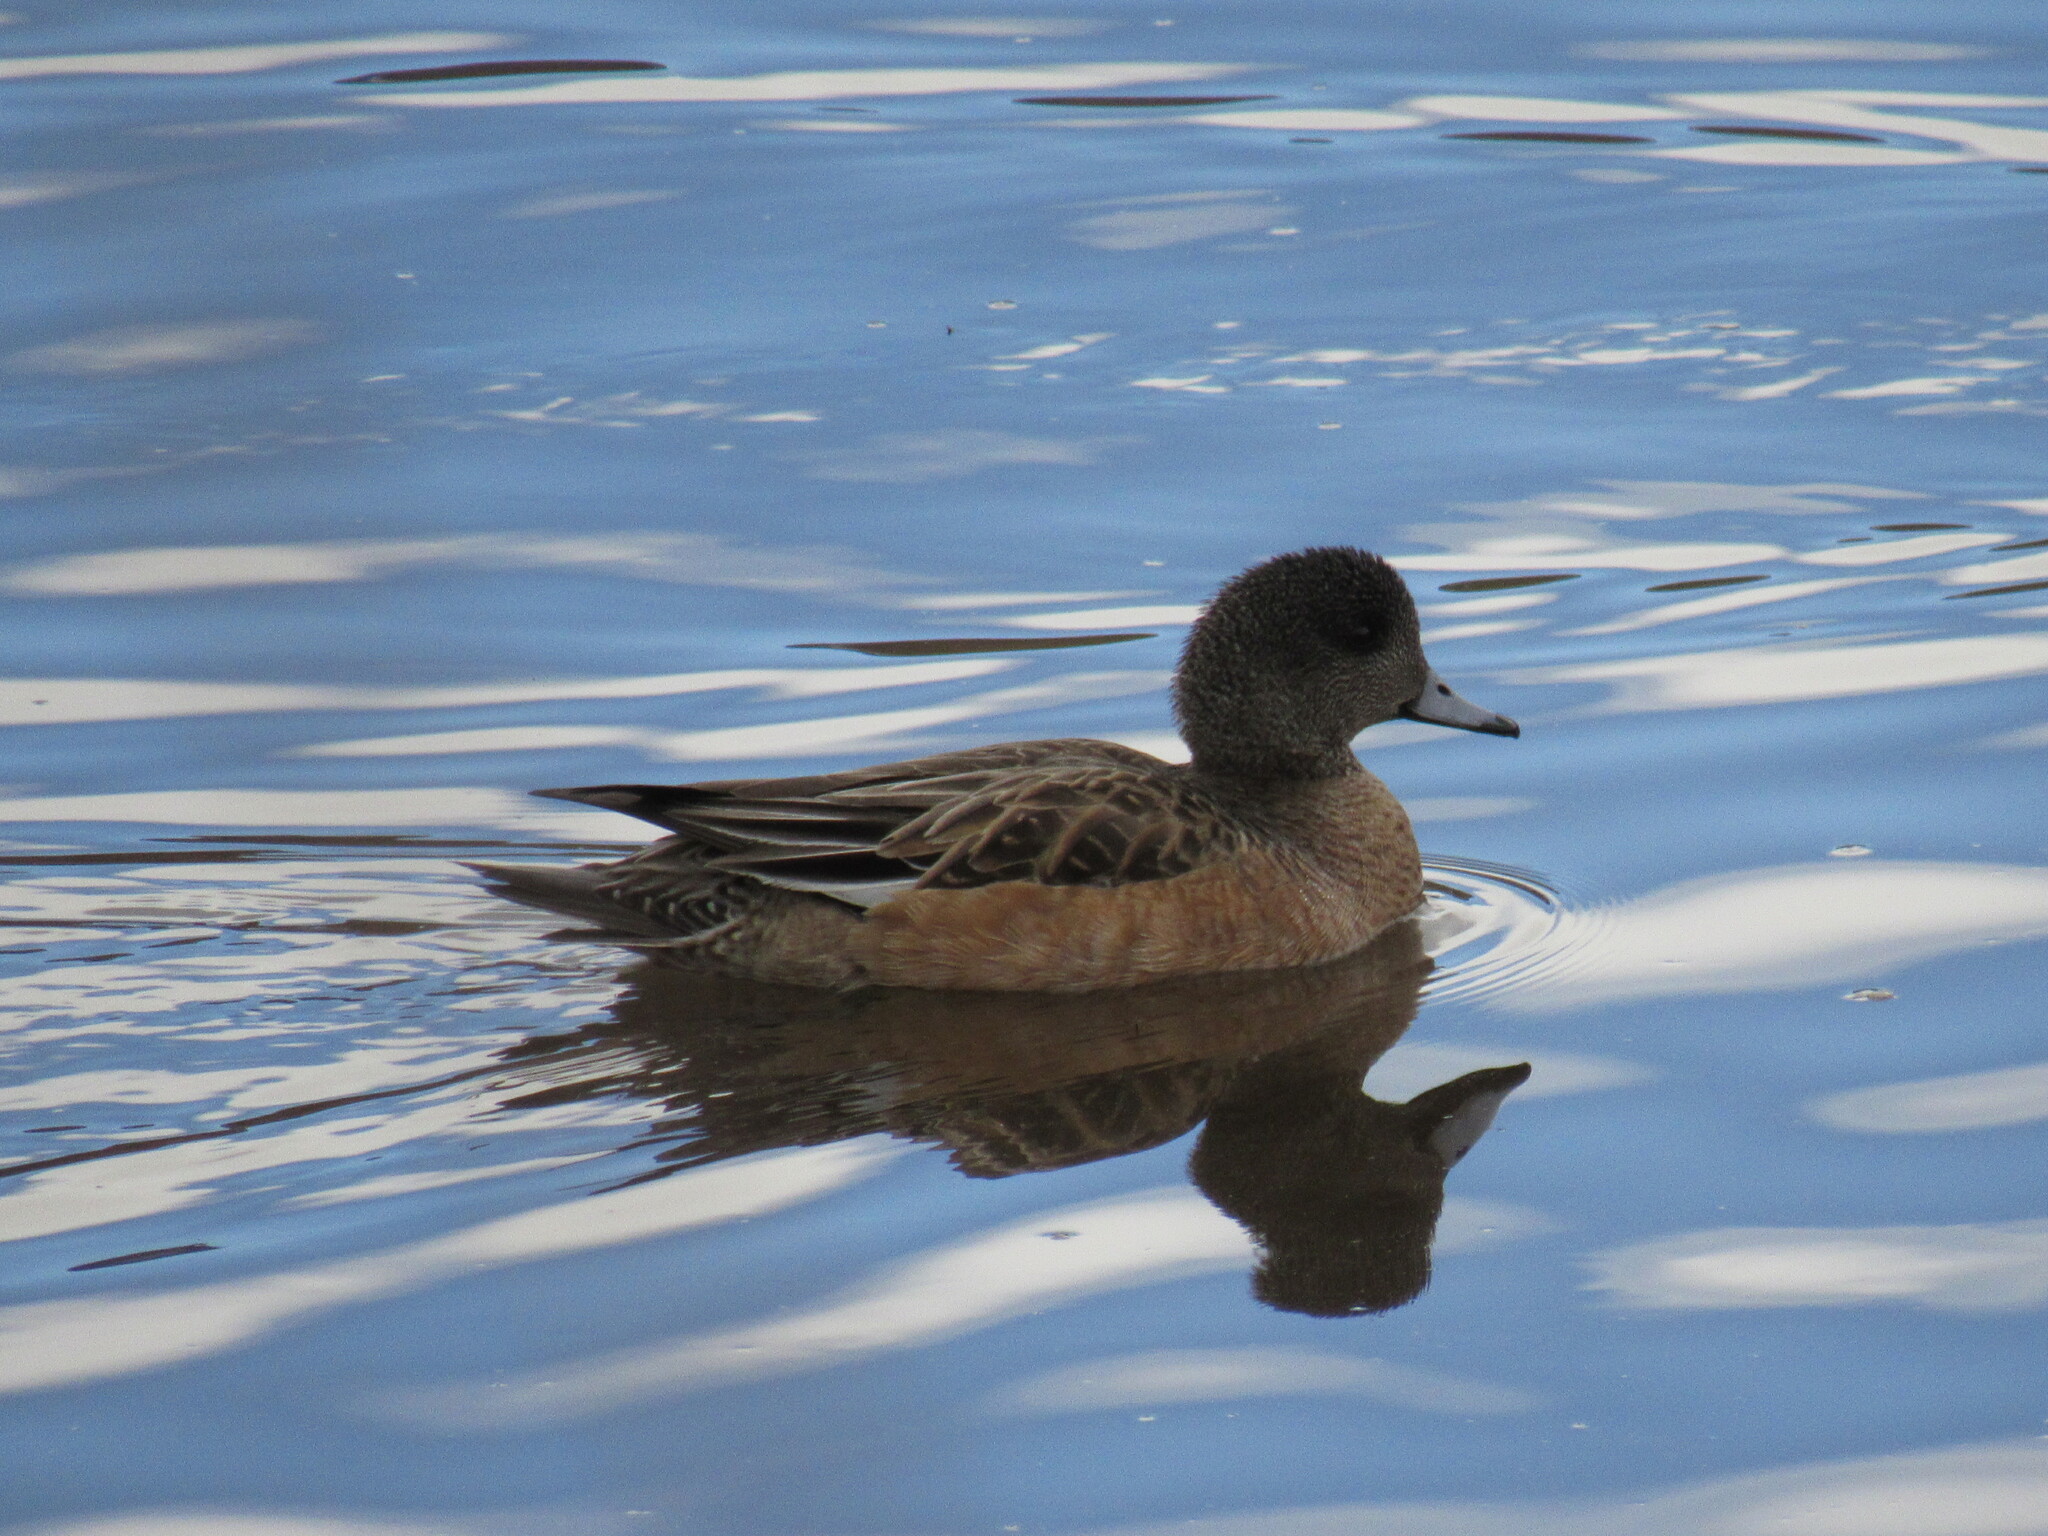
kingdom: Animalia
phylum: Chordata
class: Aves
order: Anseriformes
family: Anatidae
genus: Mareca
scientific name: Mareca americana
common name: American wigeon
